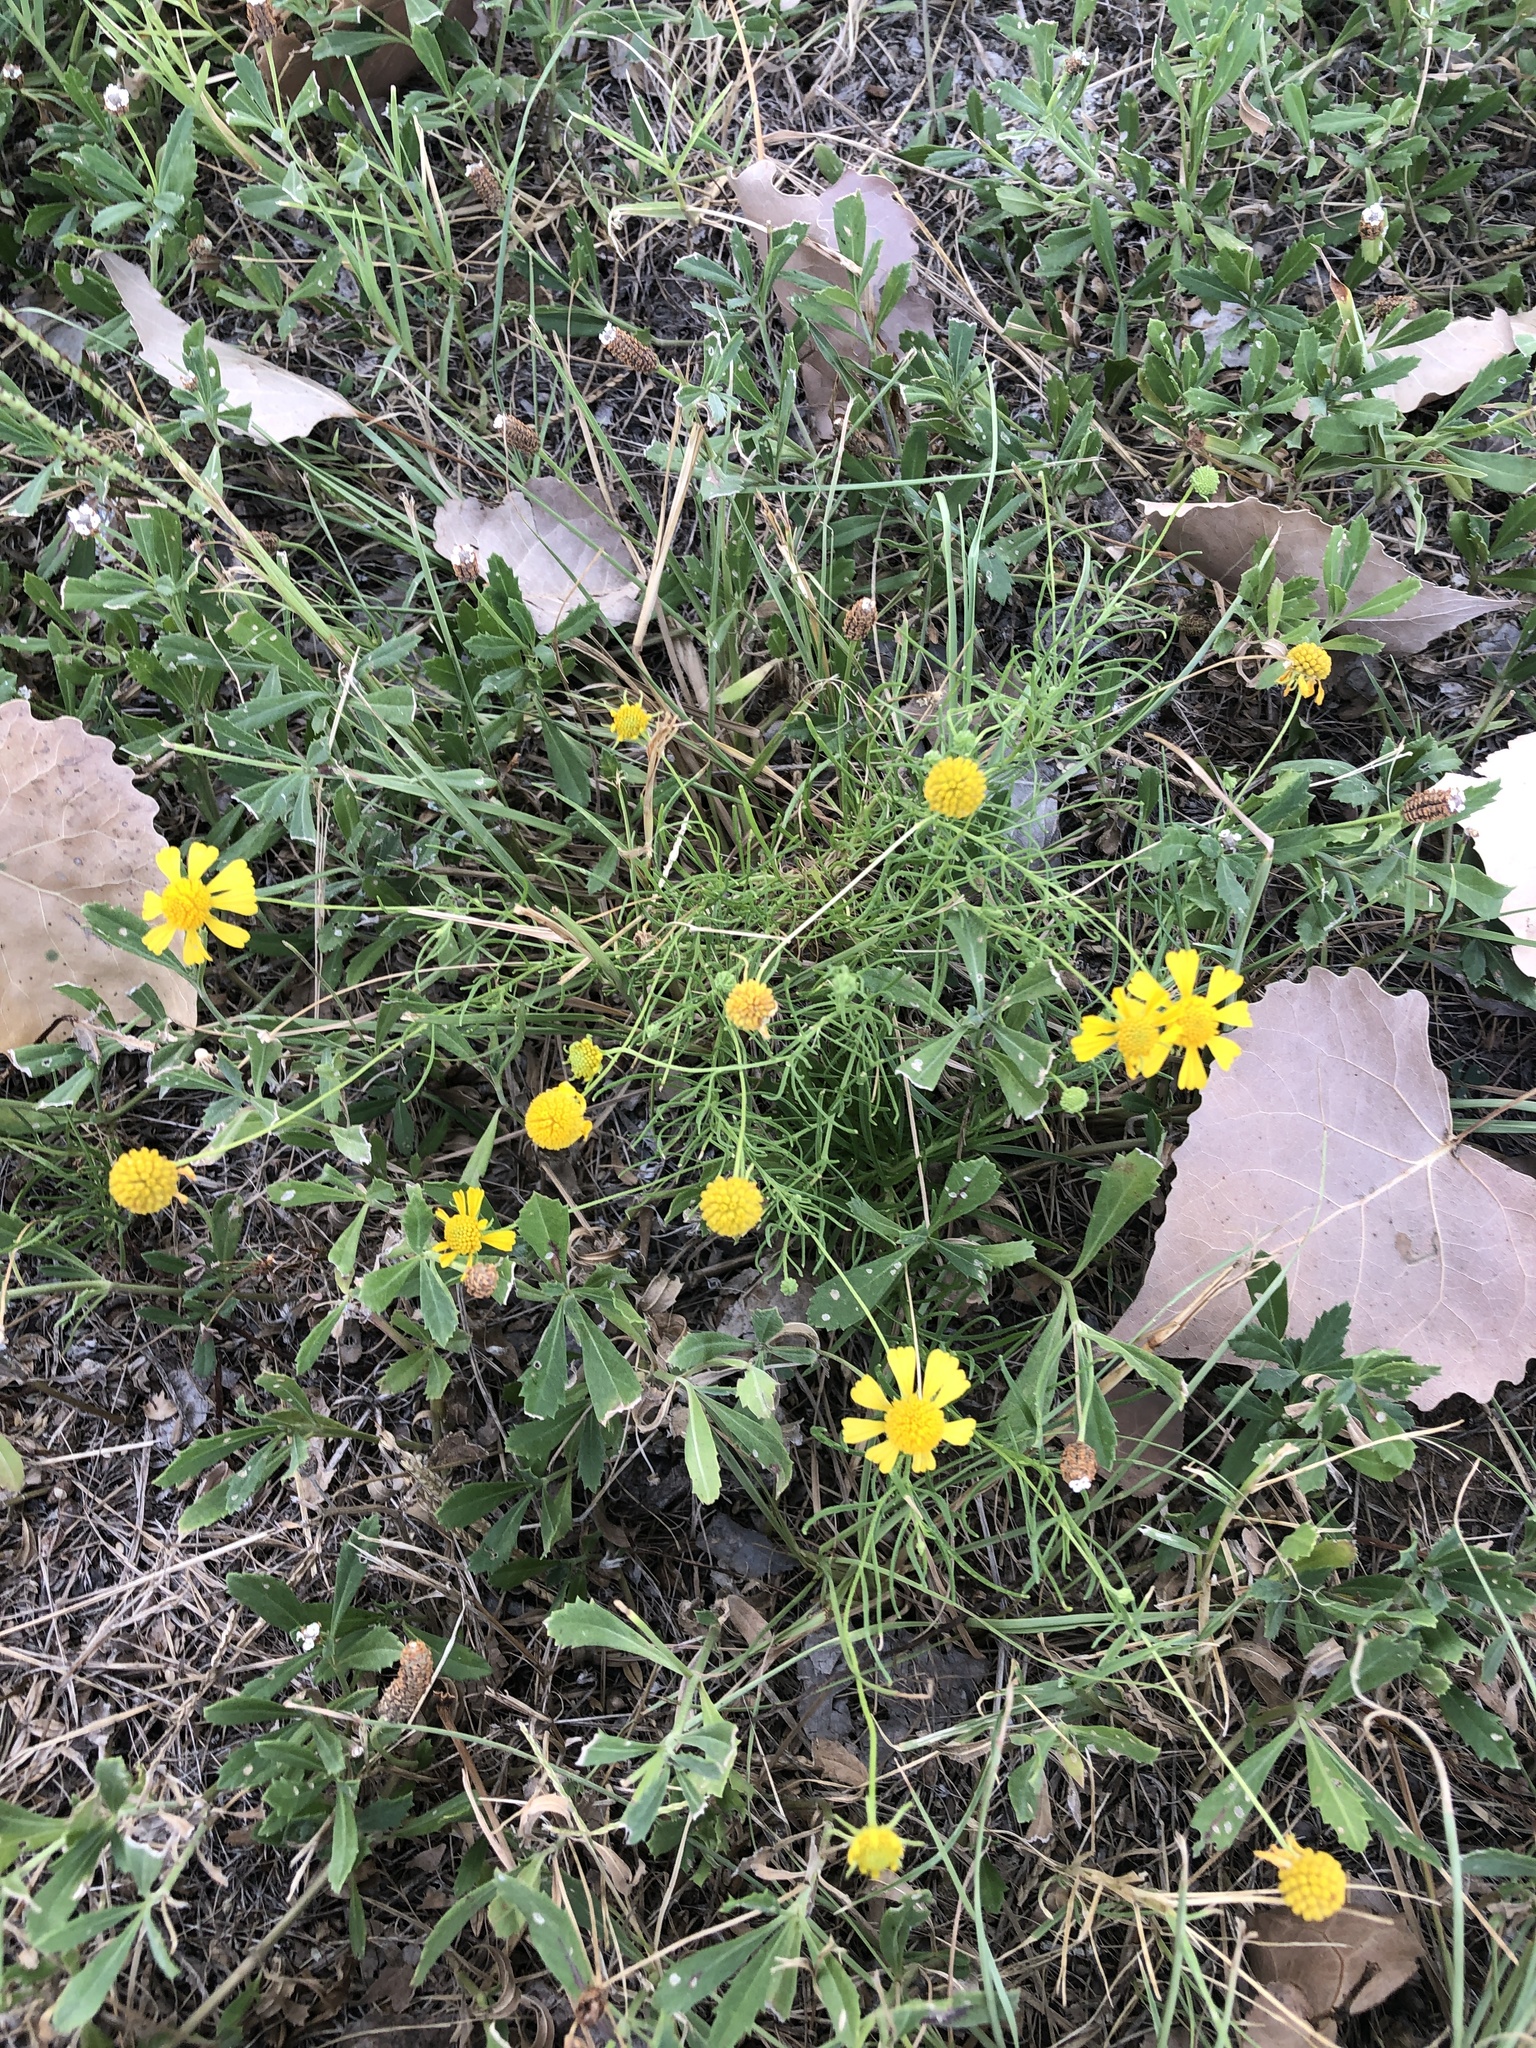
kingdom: Plantae
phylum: Tracheophyta
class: Magnoliopsida
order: Asterales
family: Asteraceae
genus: Helenium
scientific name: Helenium amarum
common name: Bitter sneezeweed
